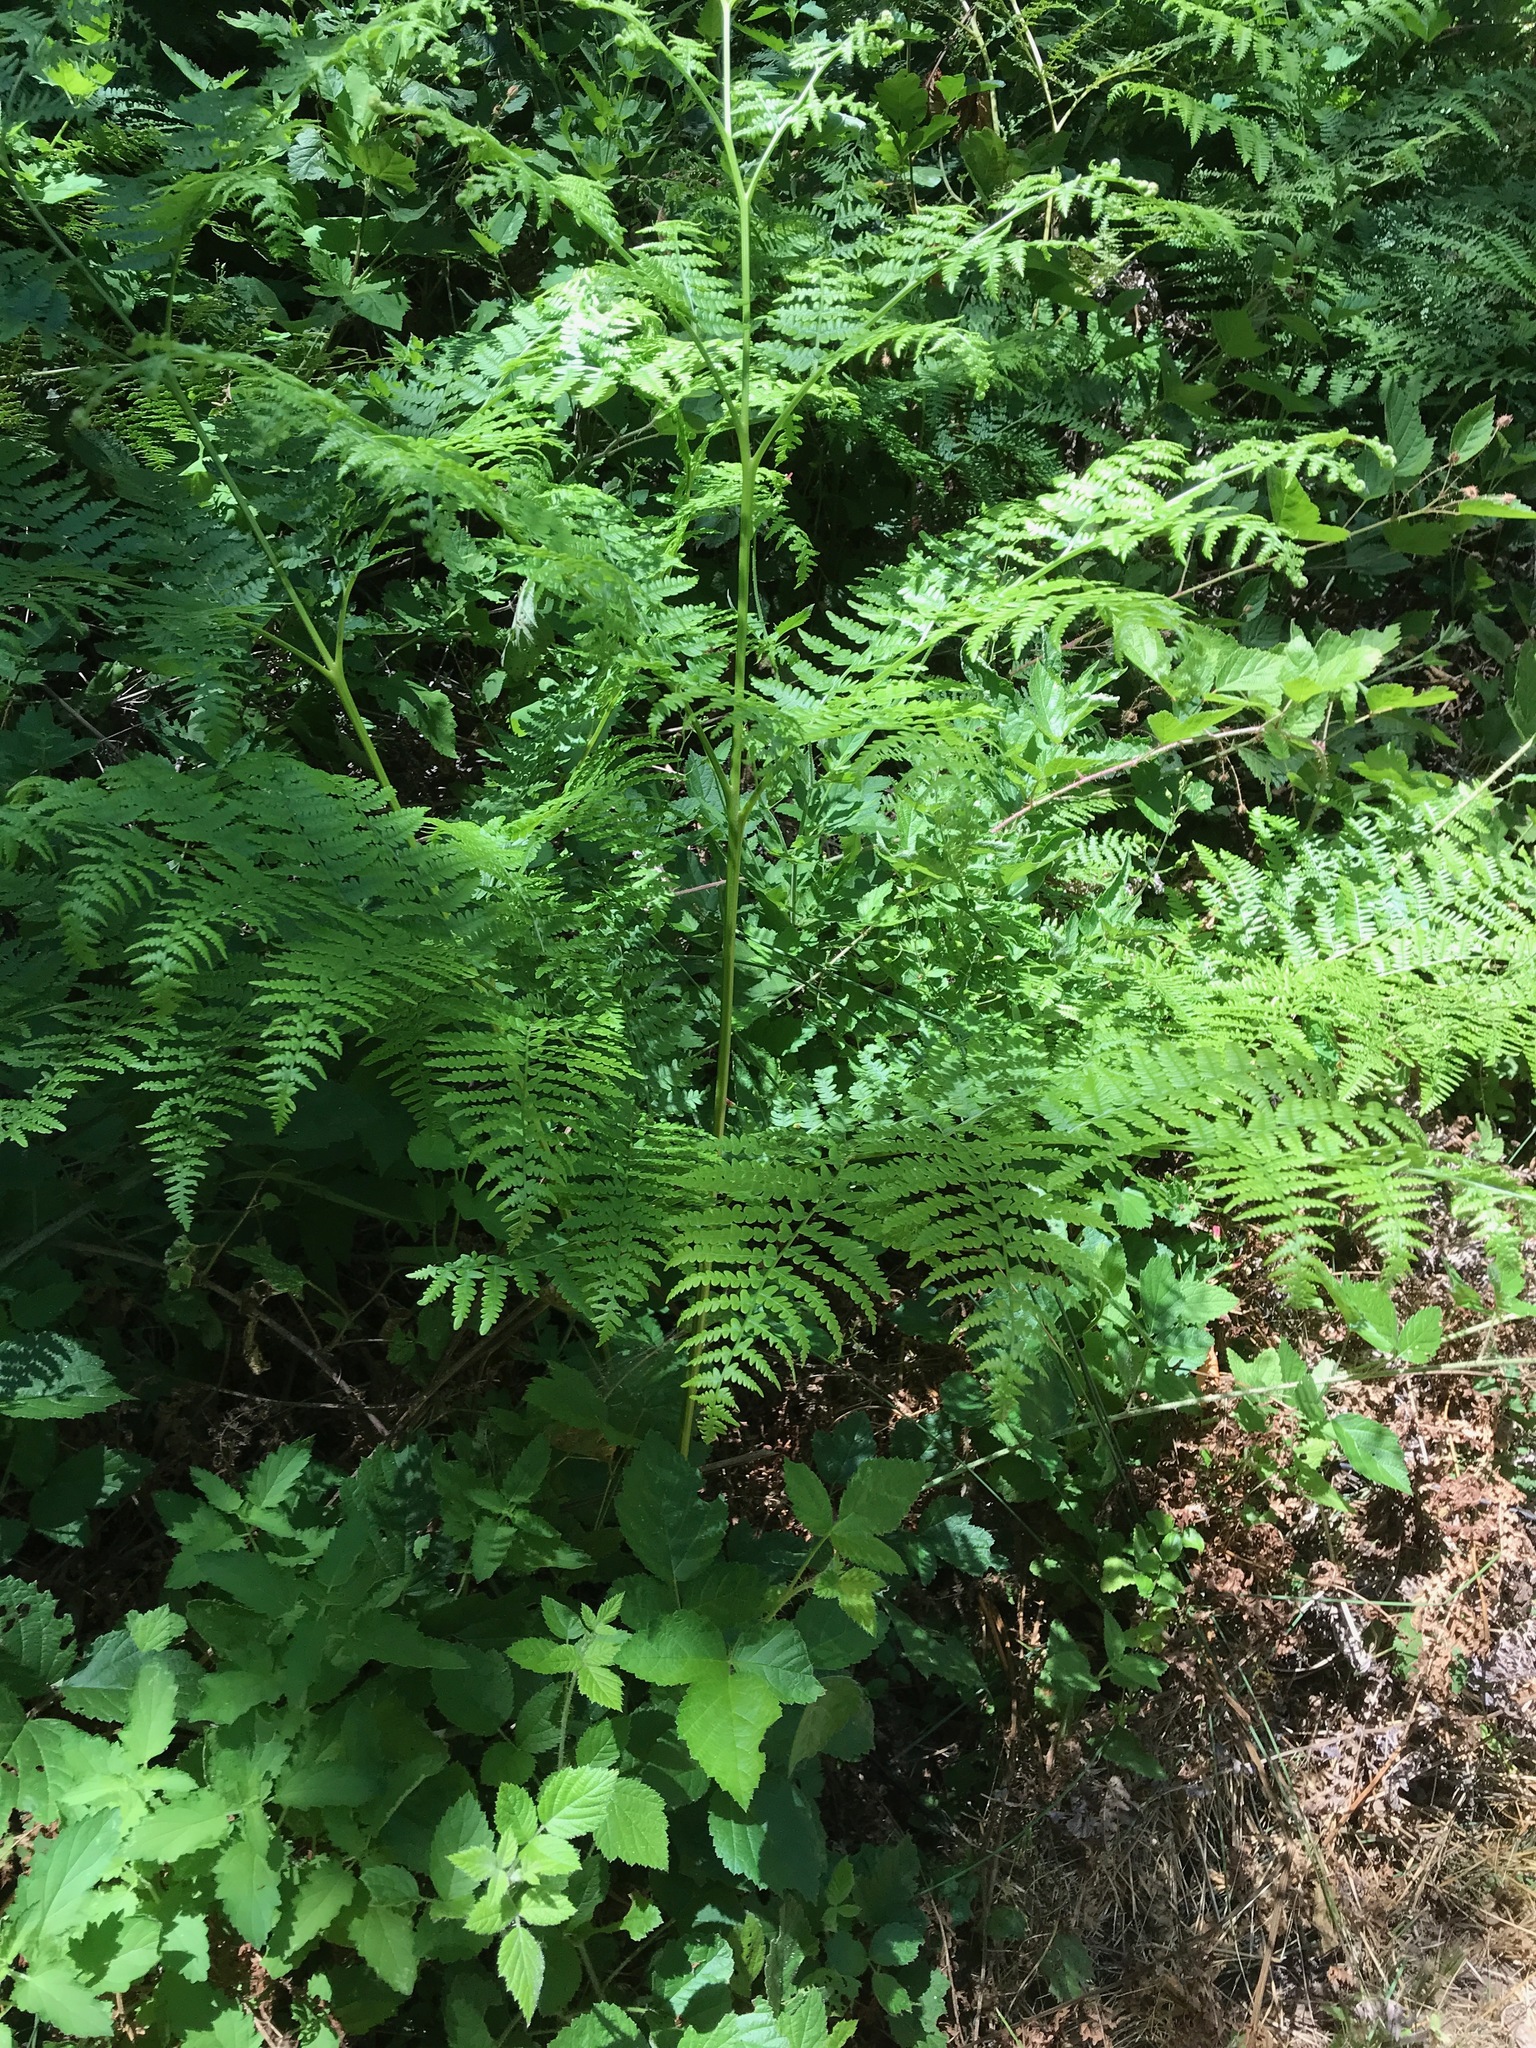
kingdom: Plantae
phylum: Tracheophyta
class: Polypodiopsida
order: Polypodiales
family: Dennstaedtiaceae
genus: Pteridium
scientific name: Pteridium aquilinum
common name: Bracken
